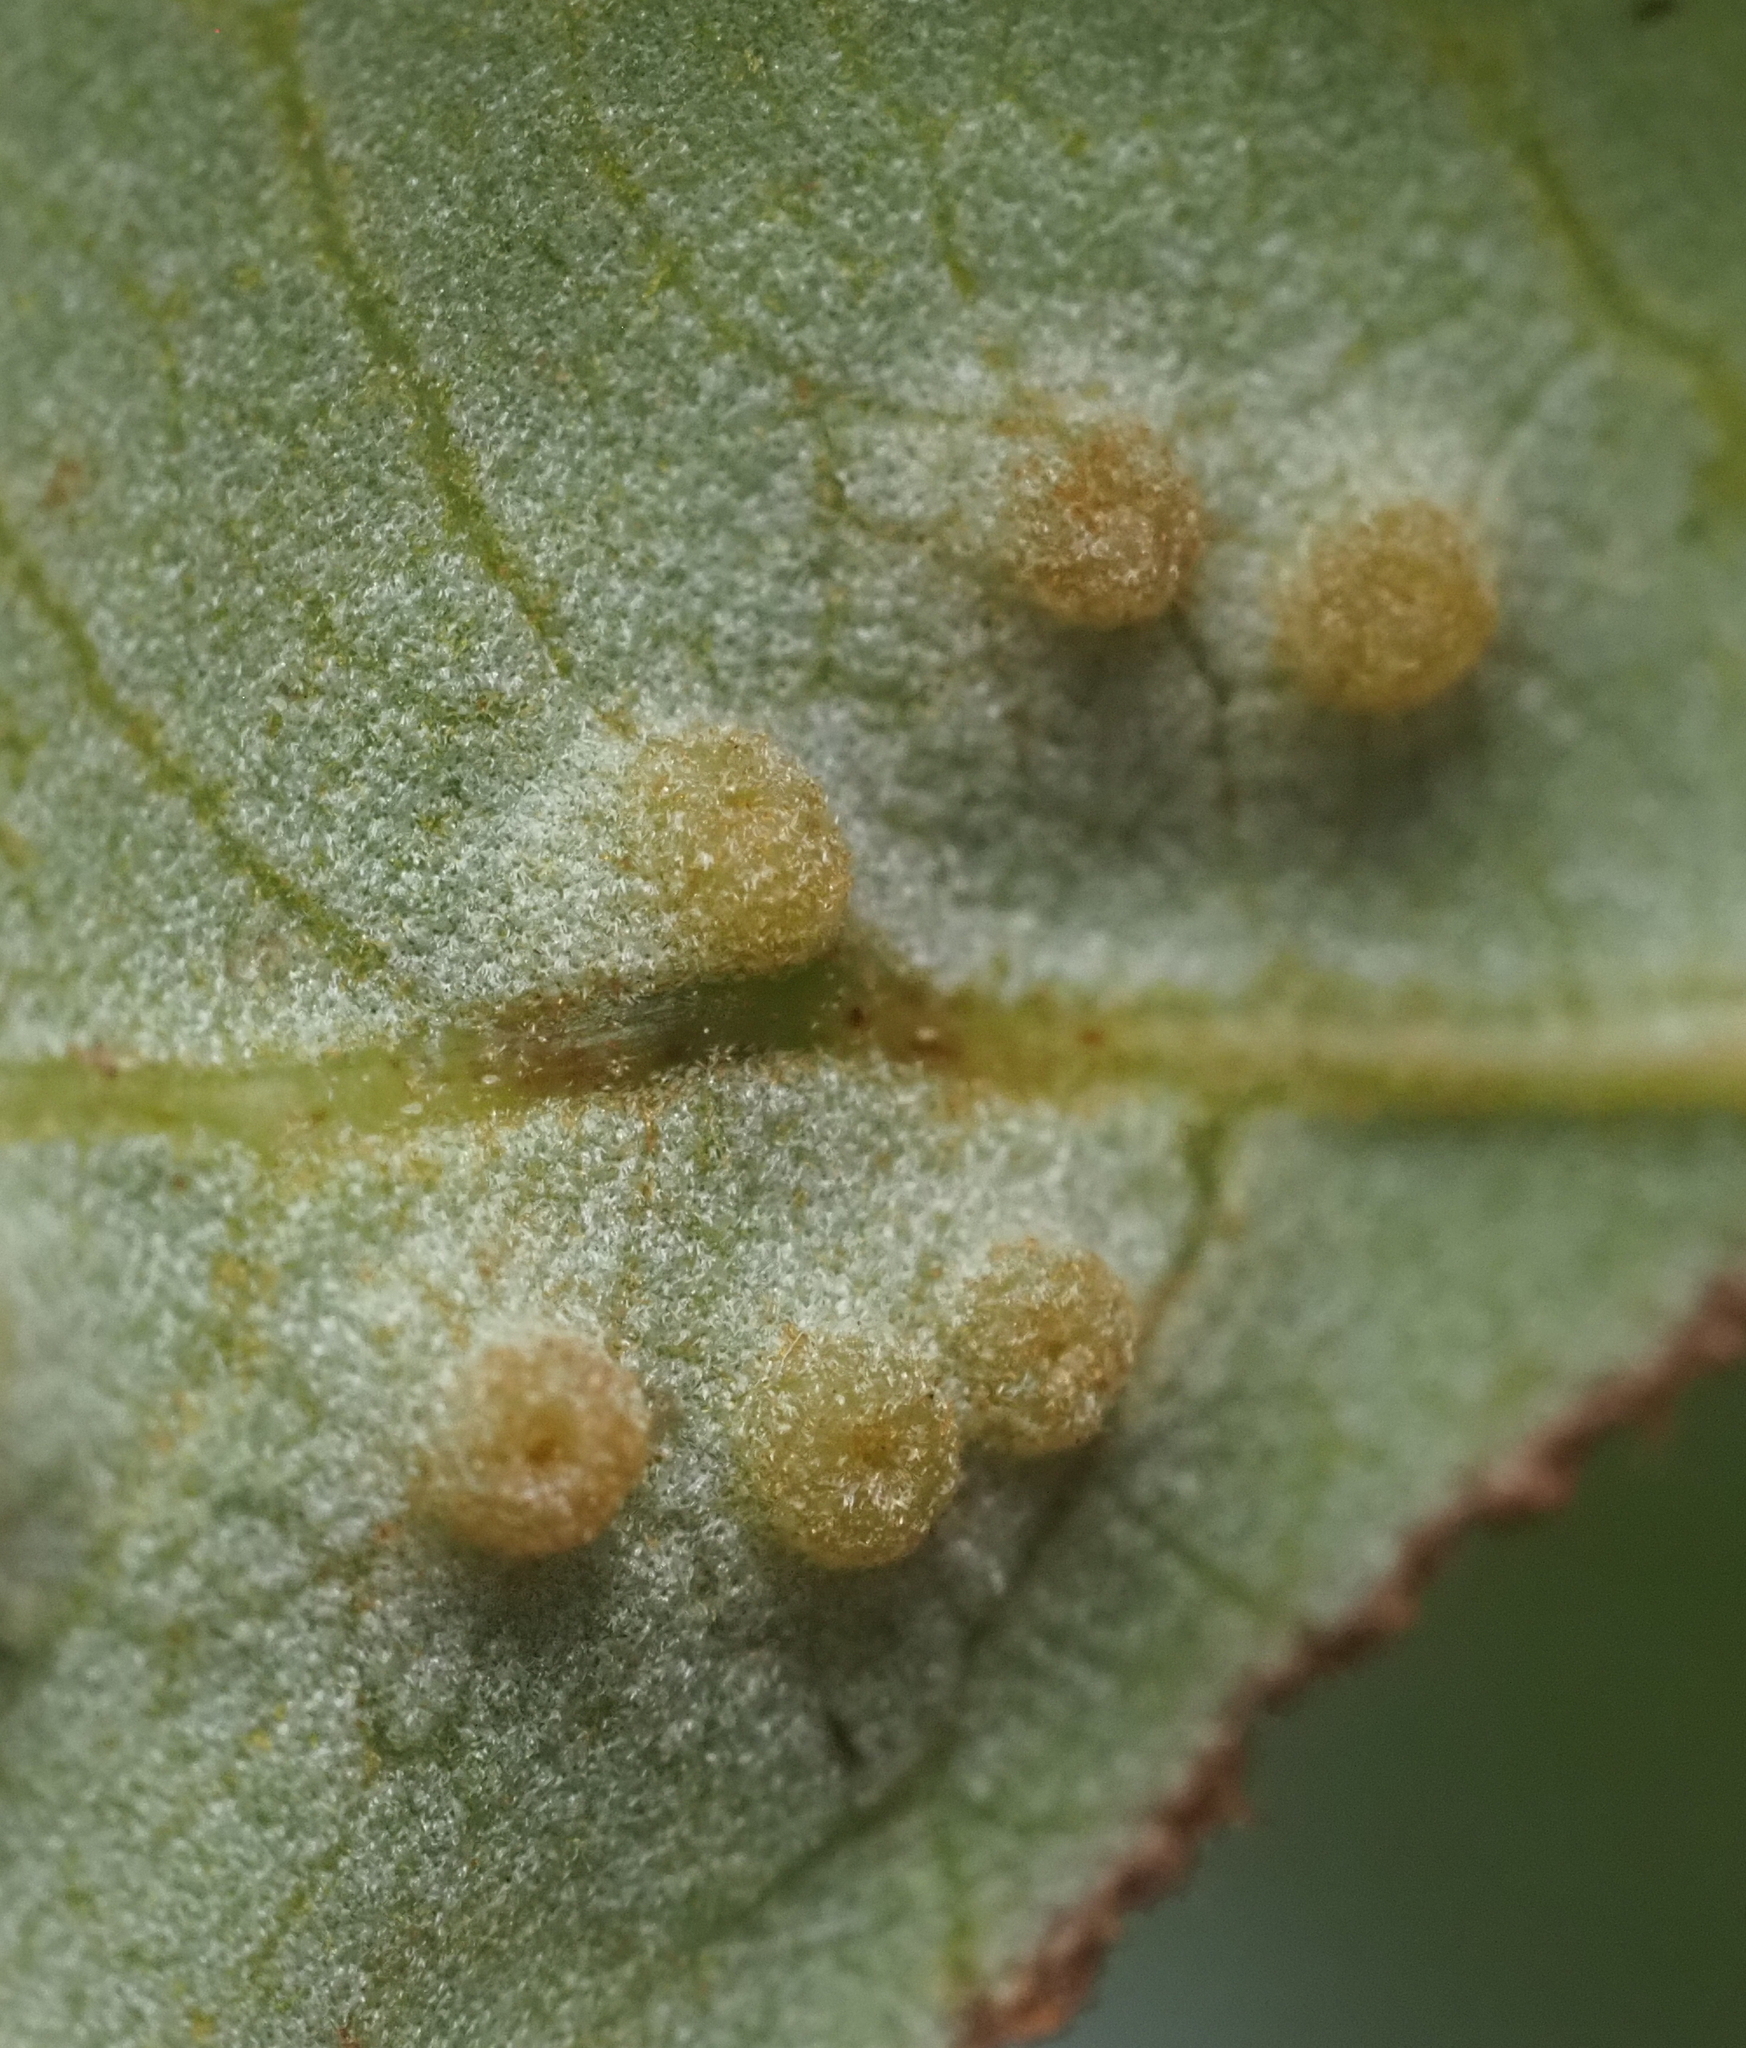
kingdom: Animalia
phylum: Arthropoda
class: Insecta
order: Hymenoptera
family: Cynipidae
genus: Neuroterus
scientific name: Neuroterus
